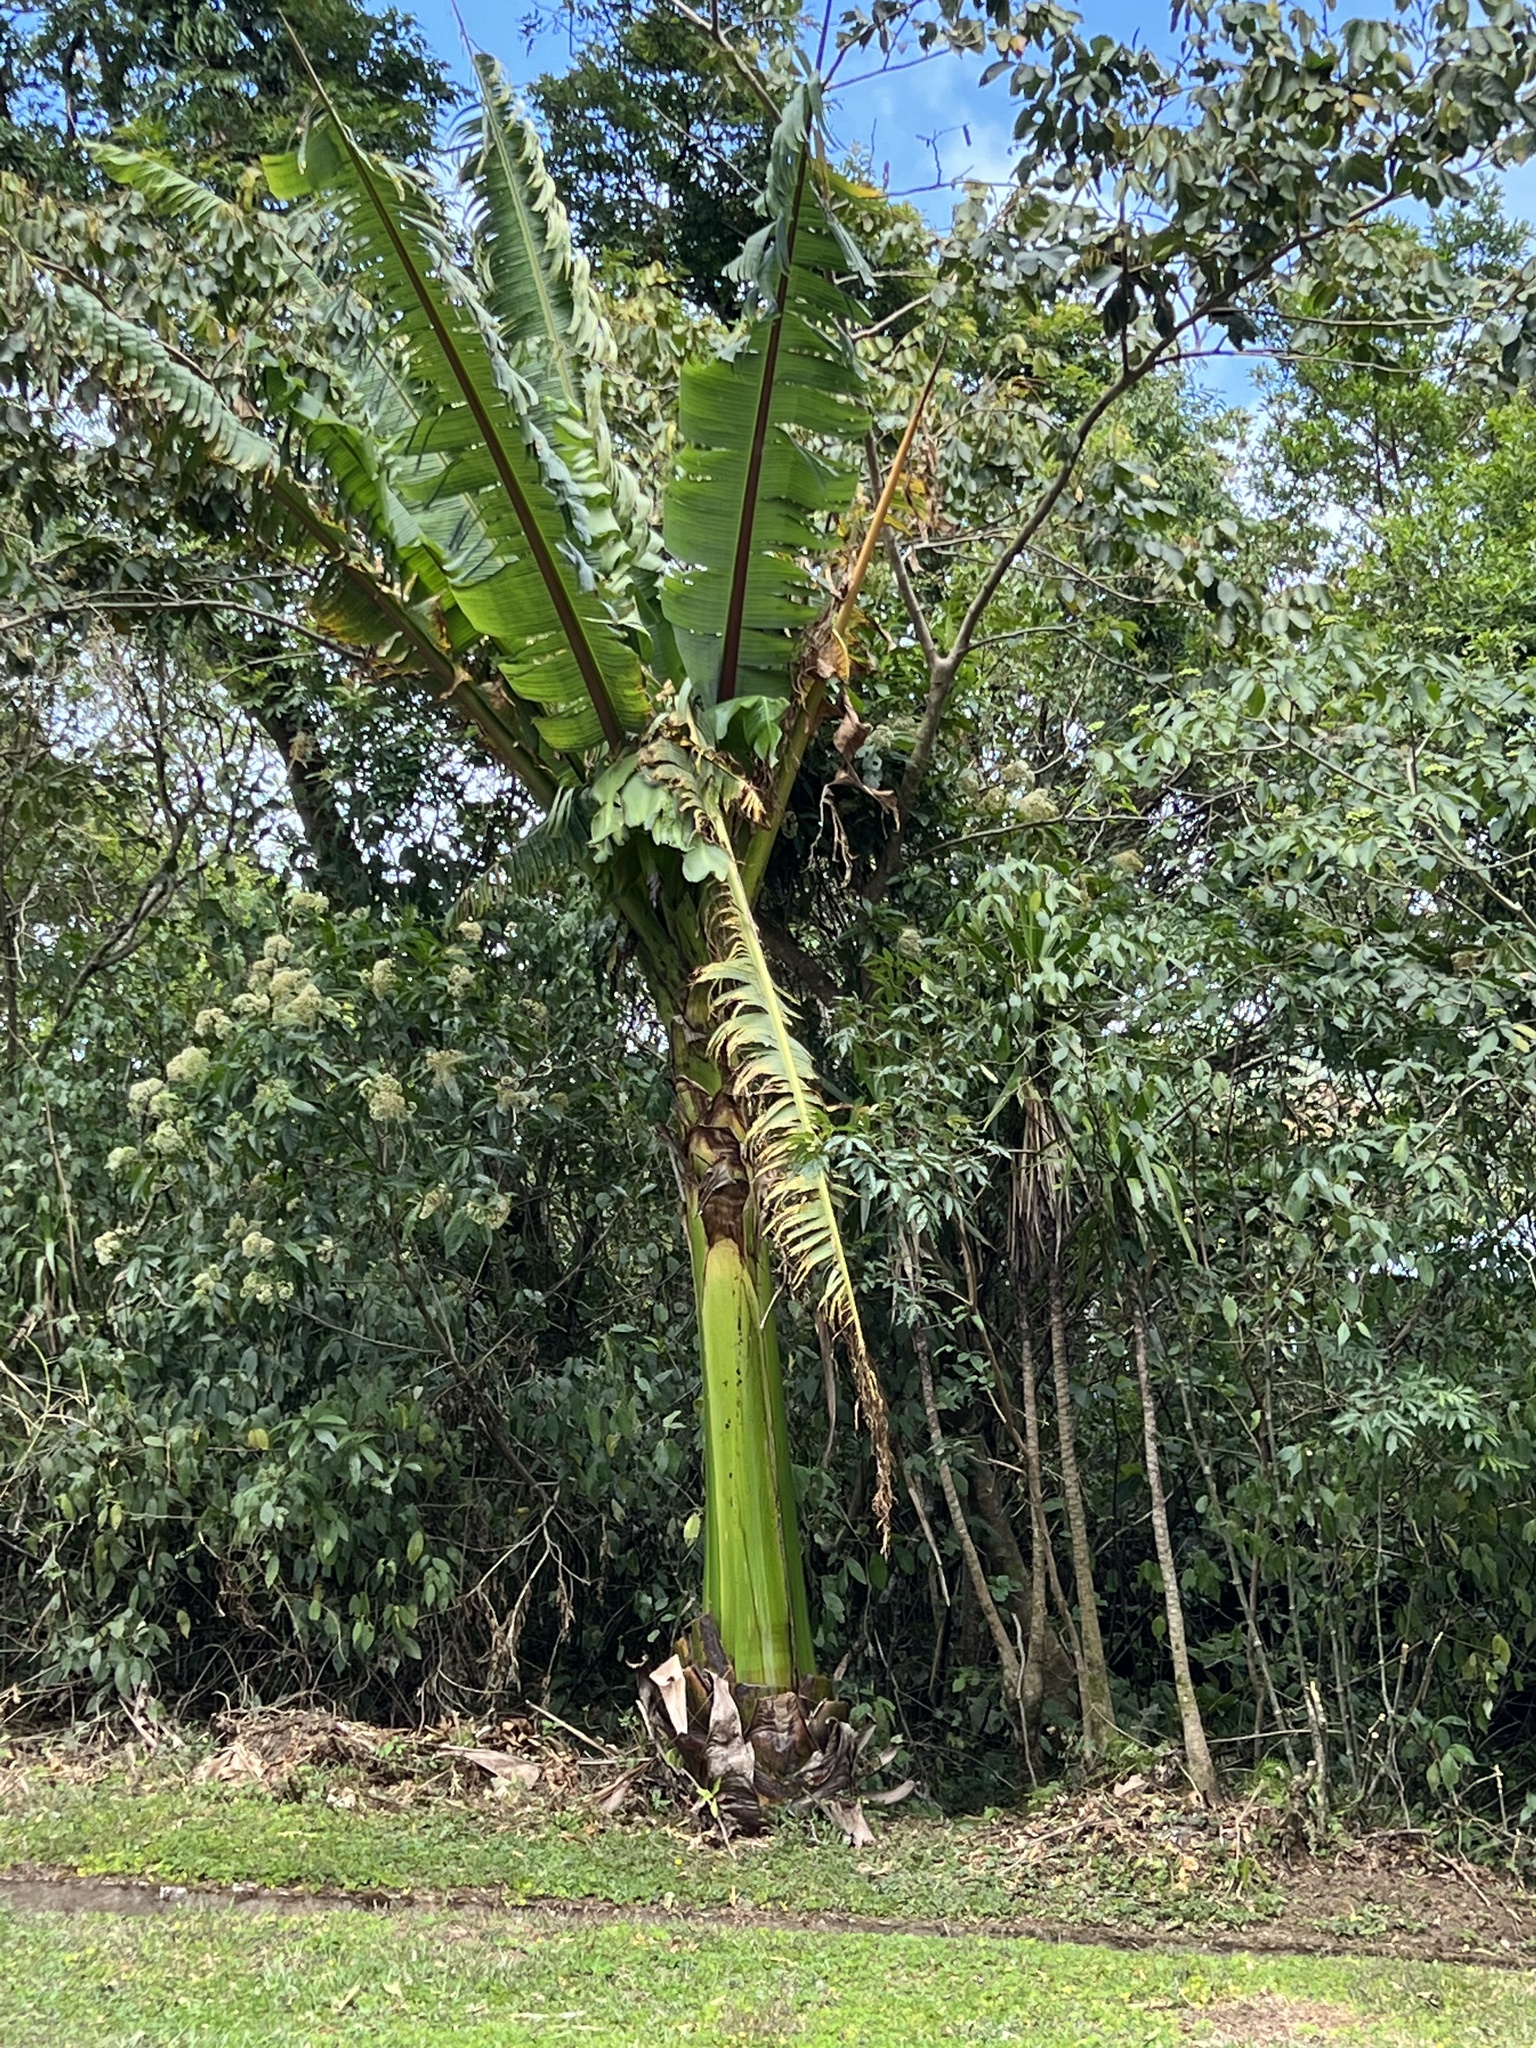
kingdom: Plantae
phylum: Tracheophyta
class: Liliopsida
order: Zingiberales
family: Musaceae
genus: Ensete
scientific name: Ensete ventricosum
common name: Abyssinian banana
